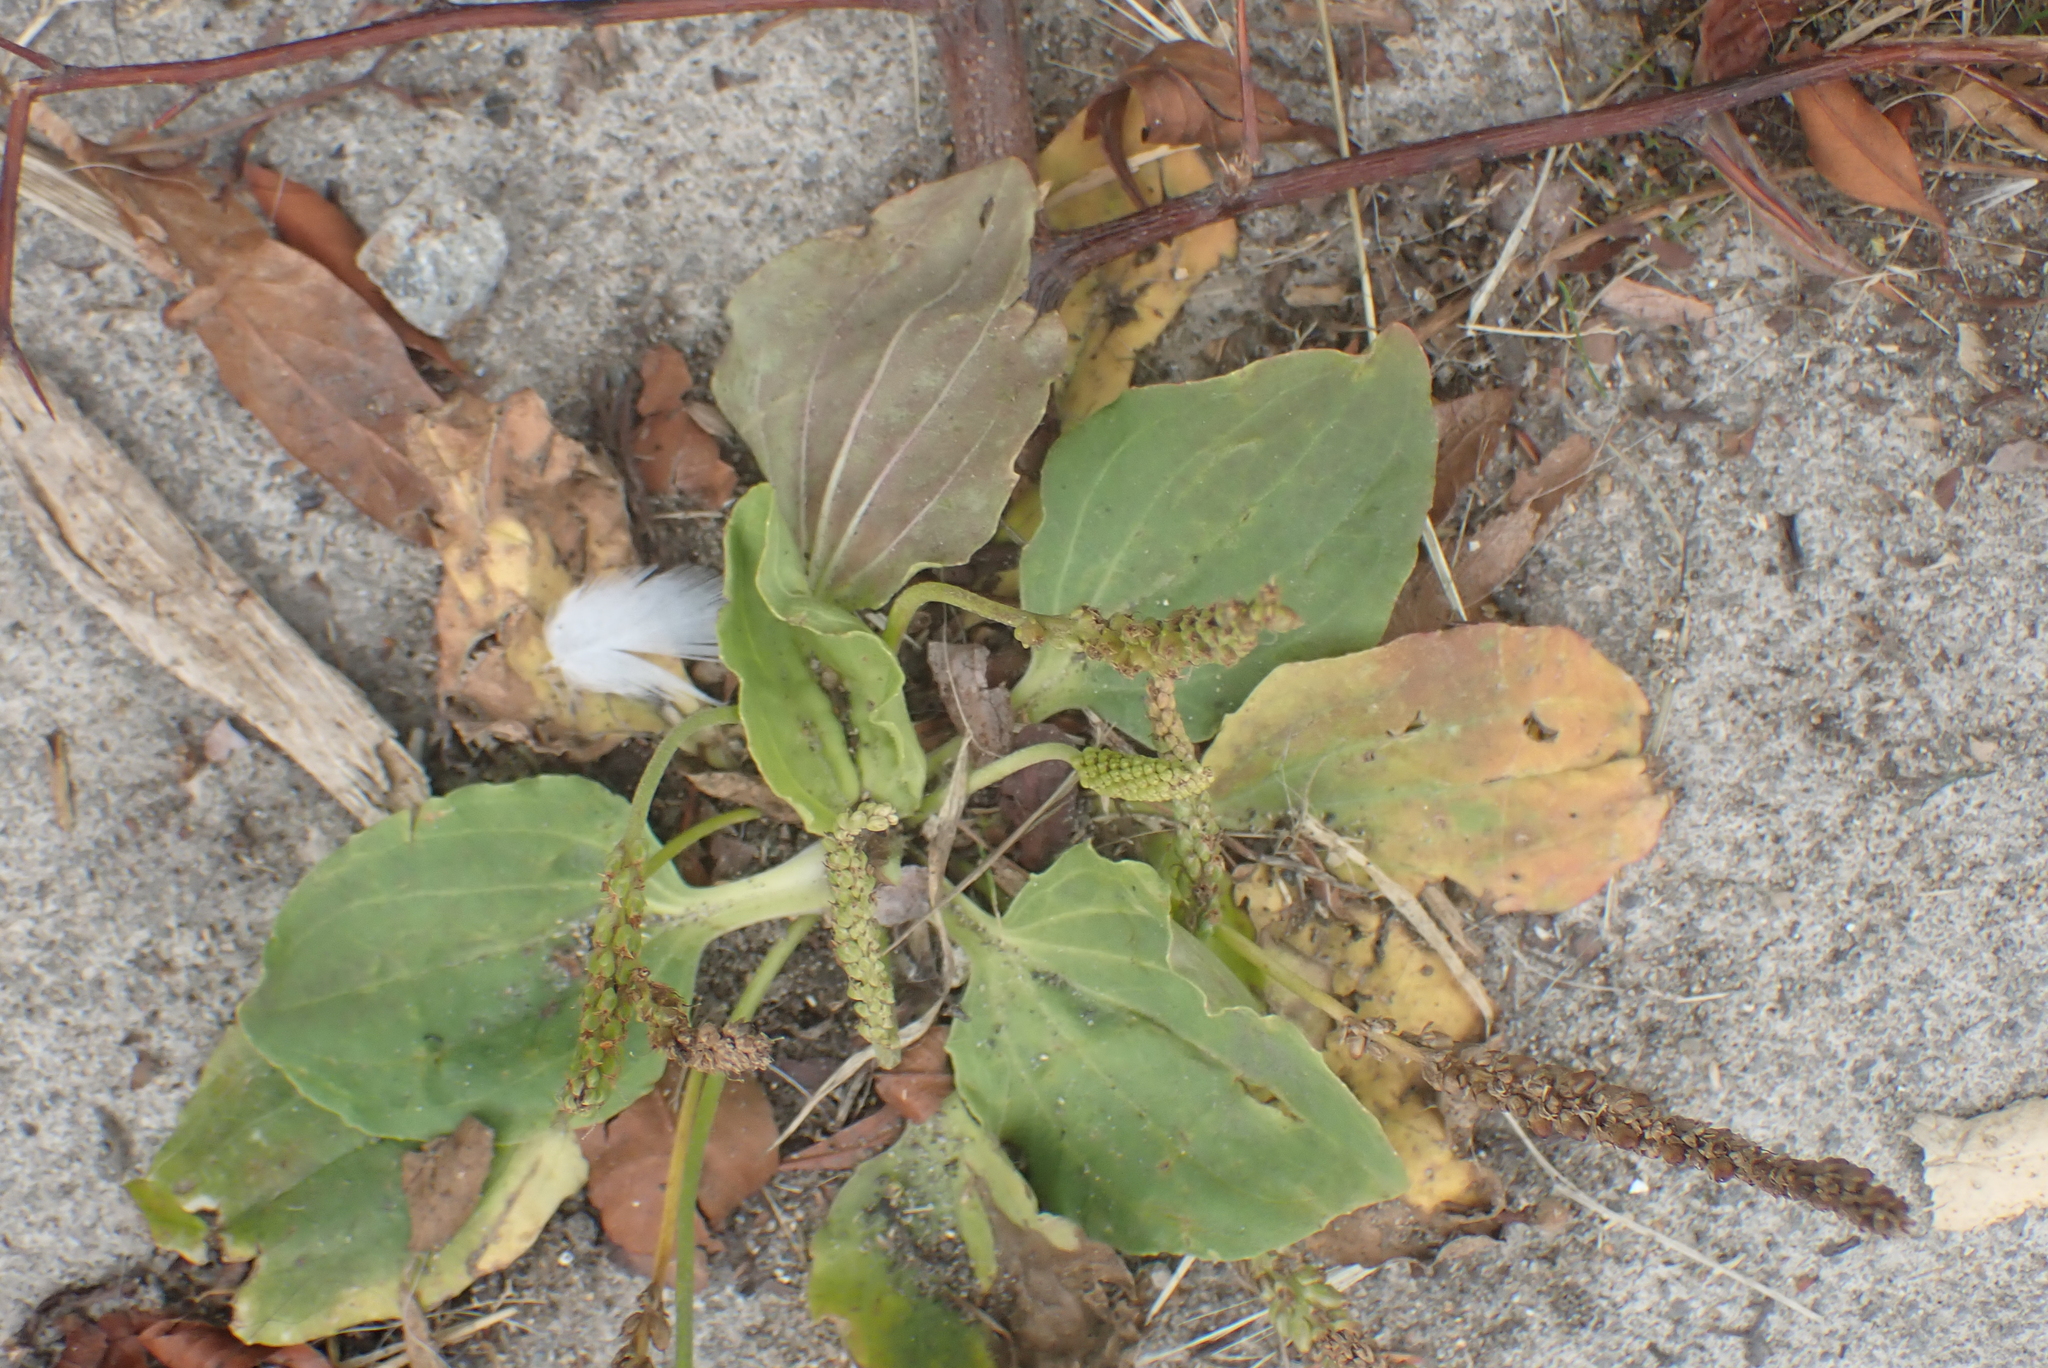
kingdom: Plantae
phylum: Tracheophyta
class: Magnoliopsida
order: Lamiales
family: Plantaginaceae
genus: Plantago
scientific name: Plantago major
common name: Common plantain
